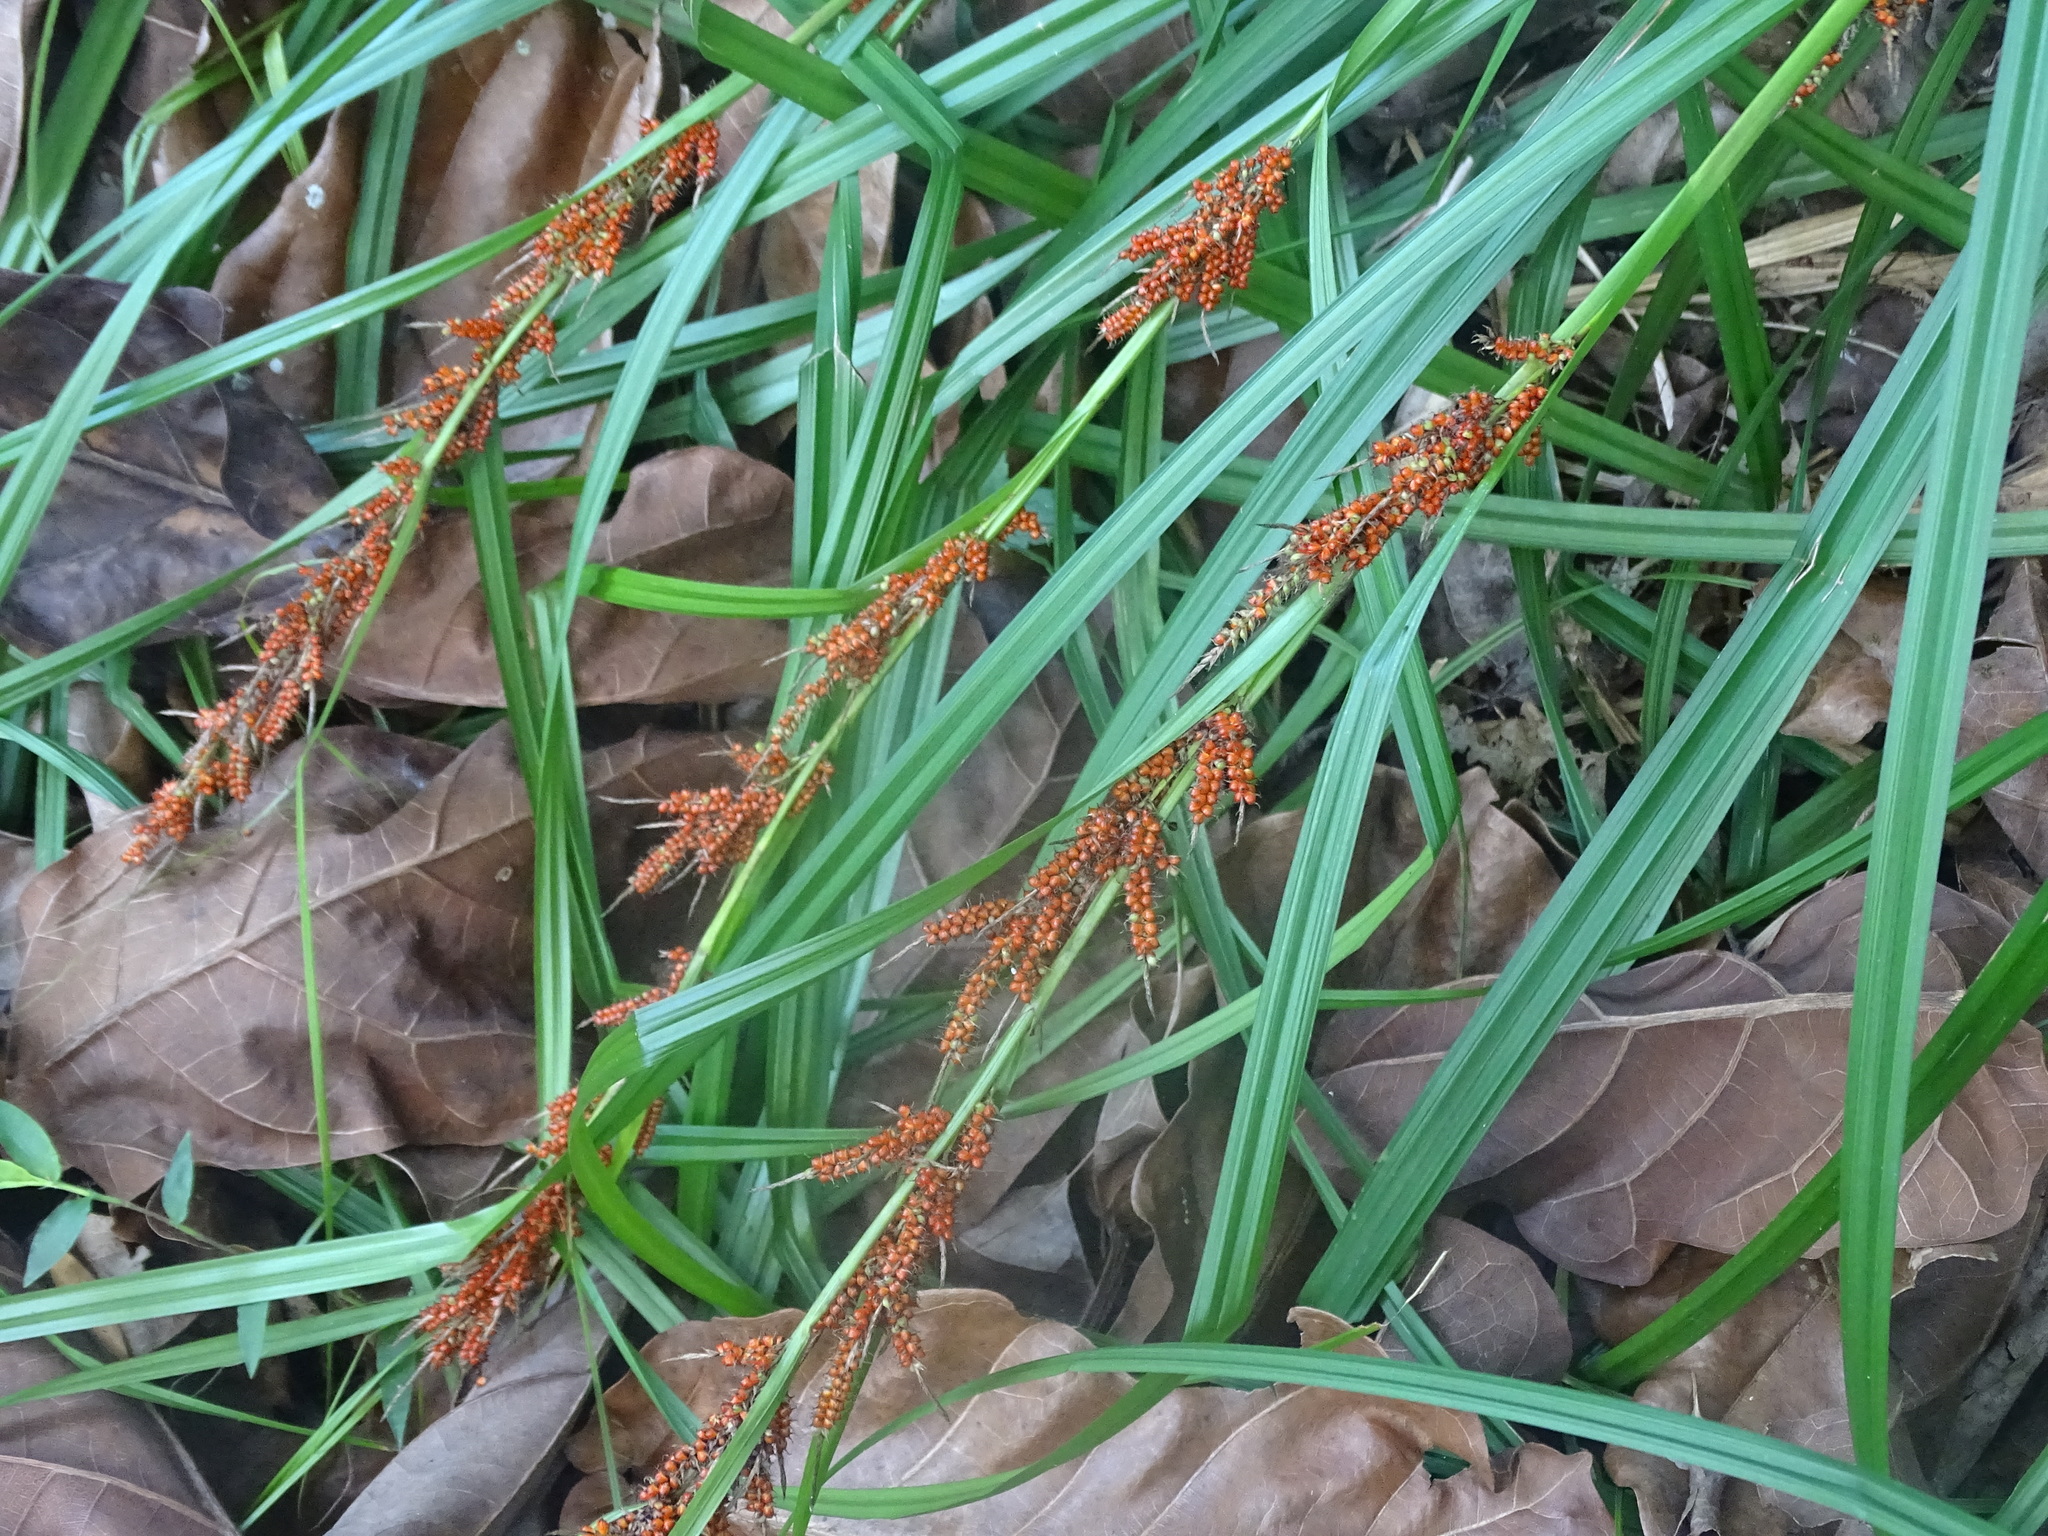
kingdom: Plantae
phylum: Tracheophyta
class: Liliopsida
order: Poales
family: Cyperaceae
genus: Carex
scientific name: Carex baccans
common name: Crimson seeded sedge
